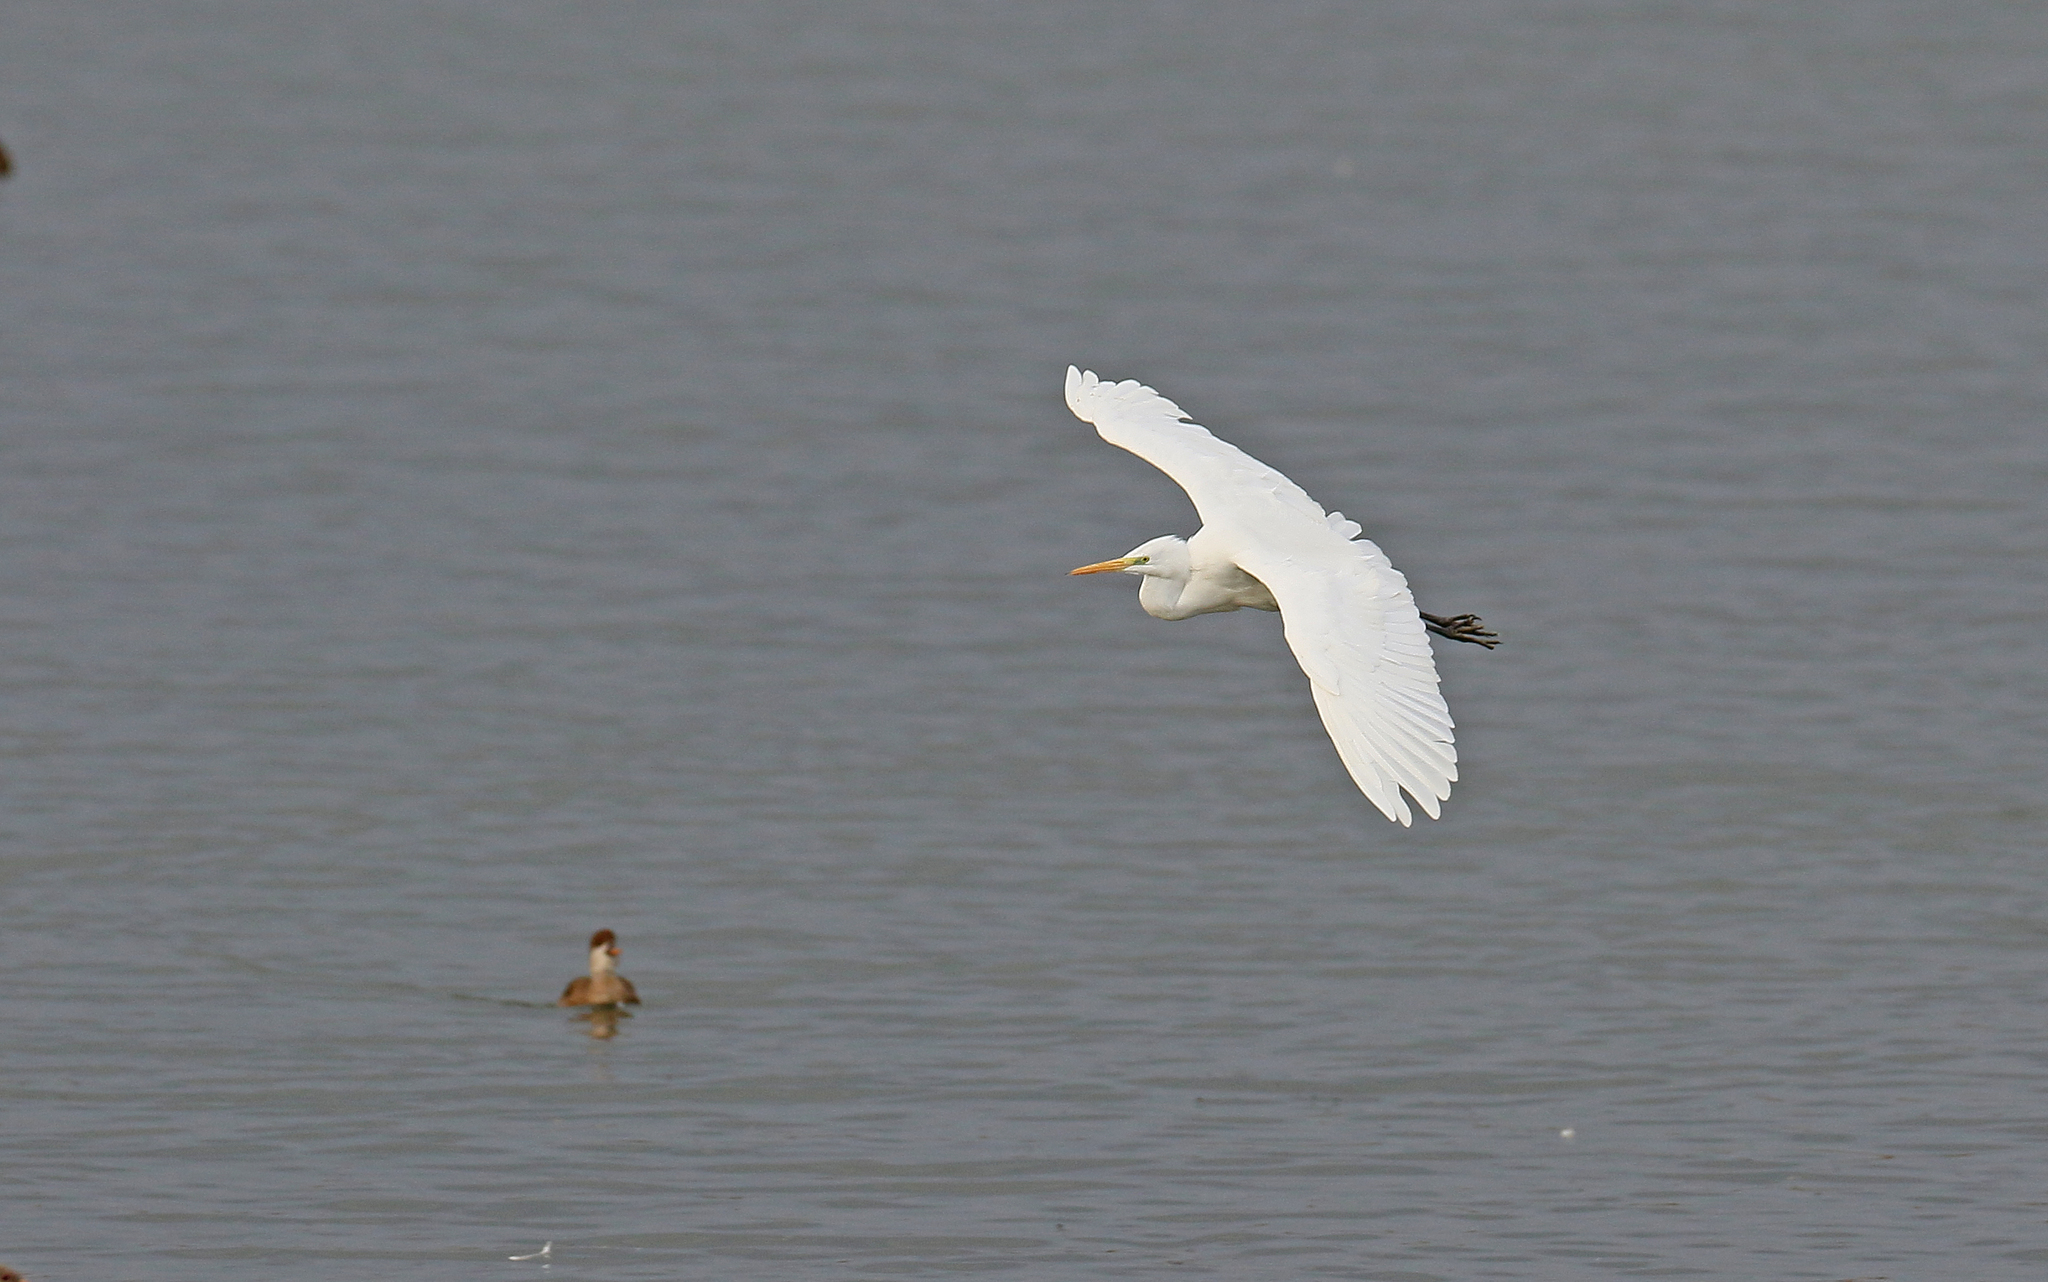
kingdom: Animalia
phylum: Chordata
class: Aves
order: Pelecaniformes
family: Ardeidae
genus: Ardea
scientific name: Ardea alba
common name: Great egret
